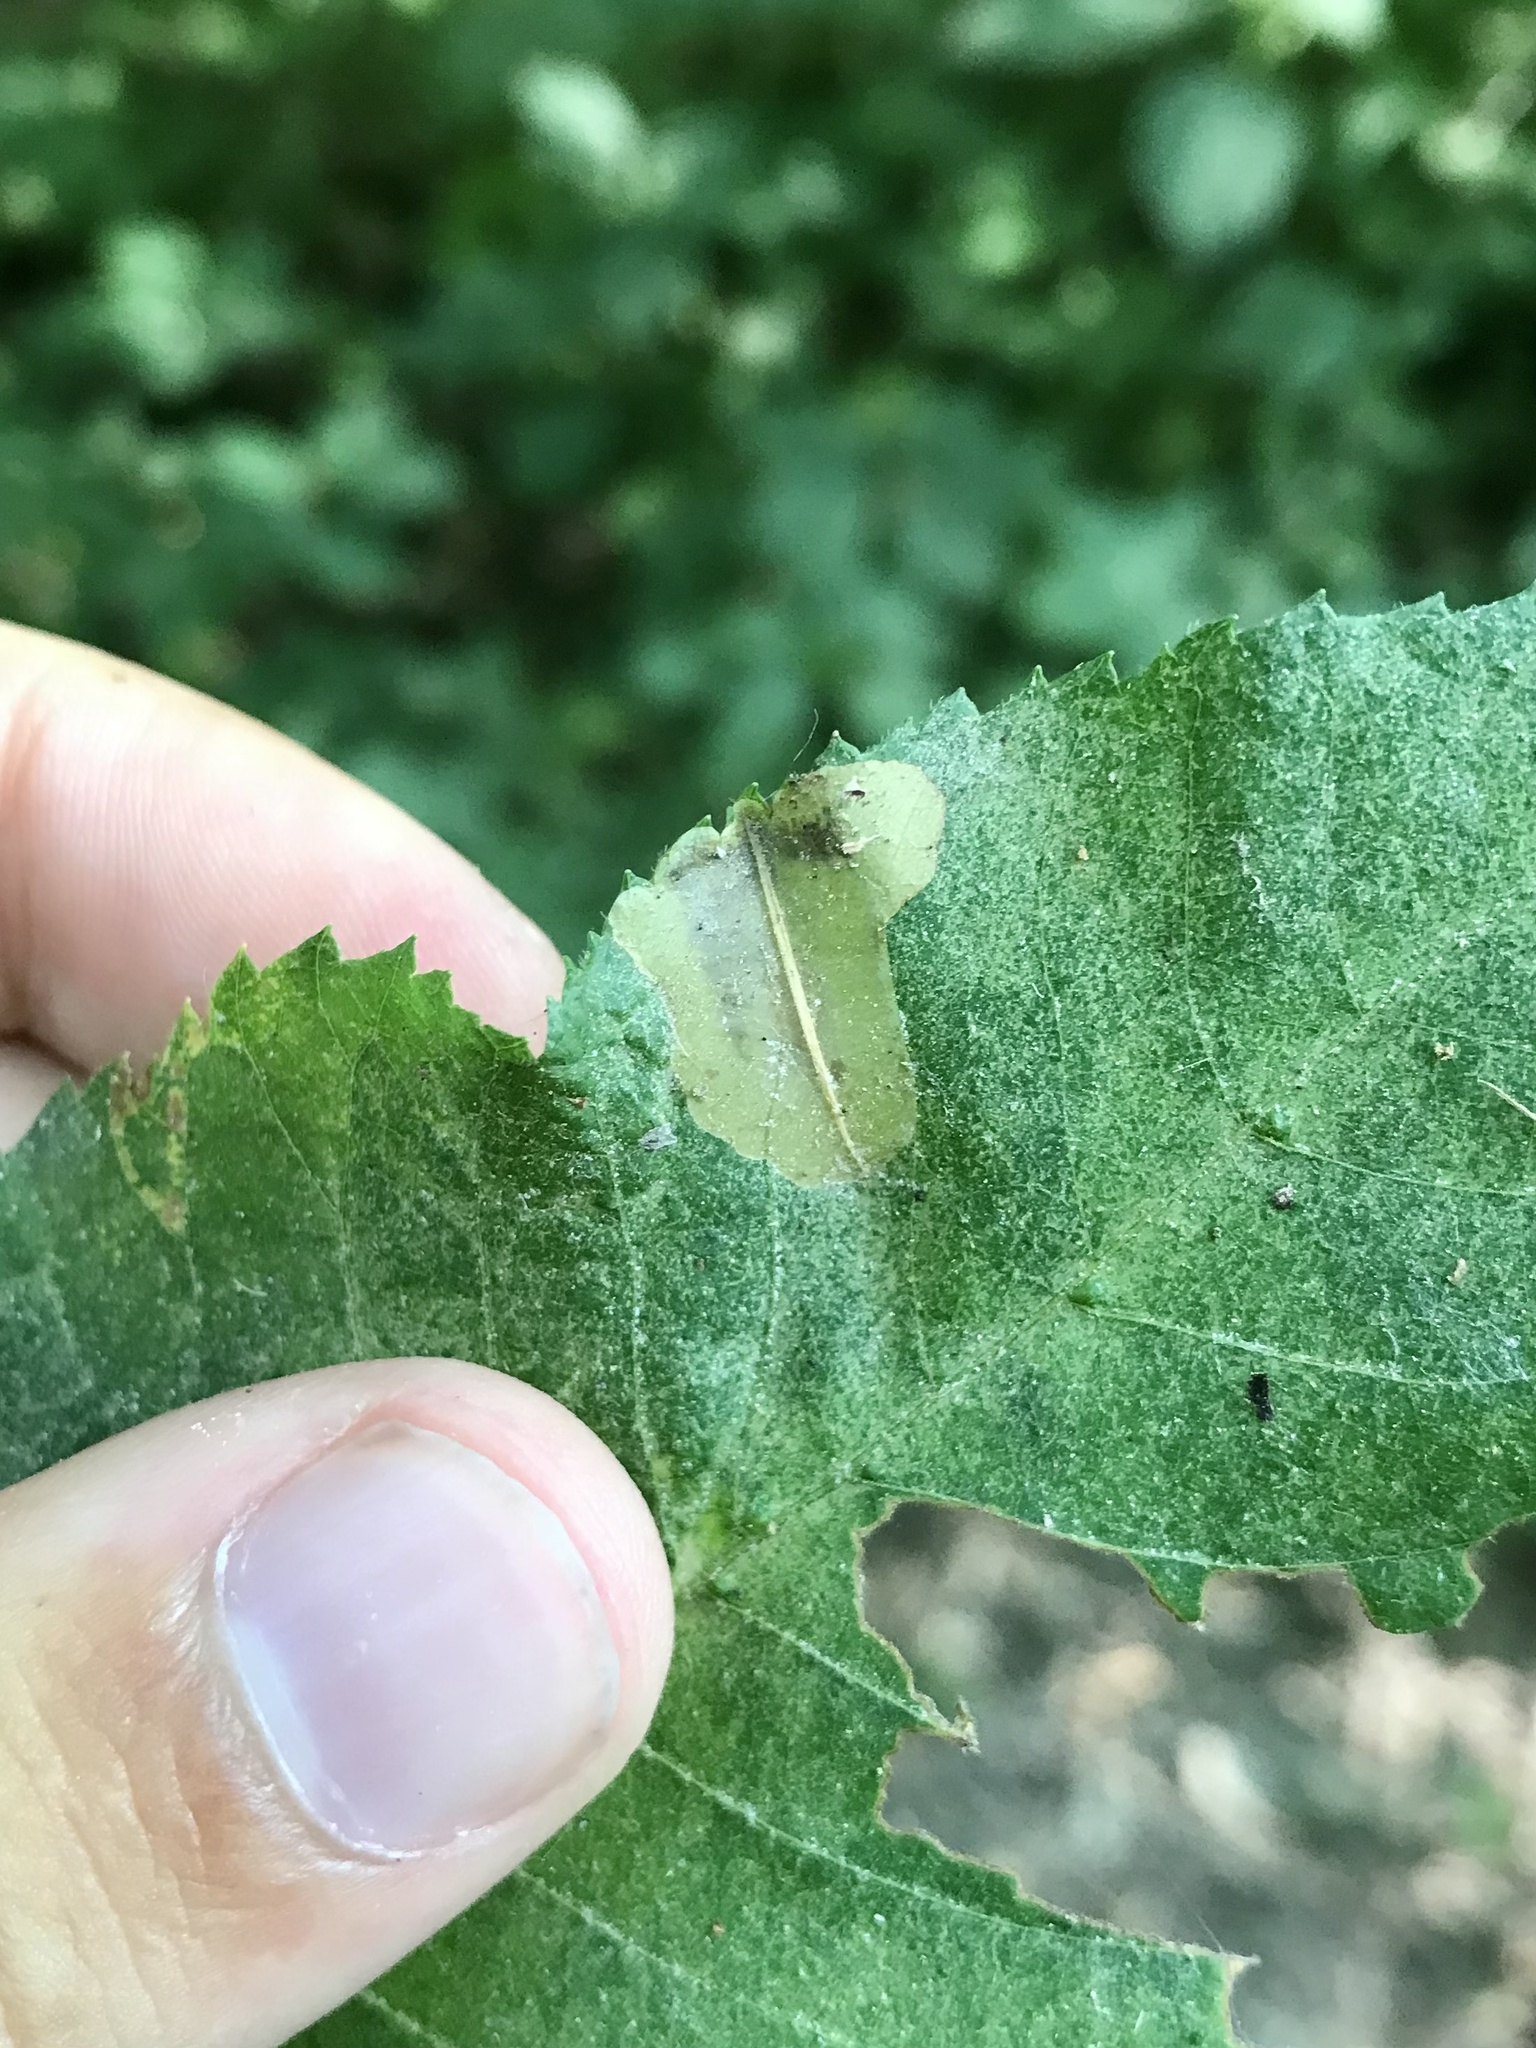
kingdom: Animalia
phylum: Arthropoda
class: Insecta
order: Lepidoptera
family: Gracillariidae
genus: Cameraria
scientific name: Cameraria caryaefoliella
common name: Pecan leafminer moth
